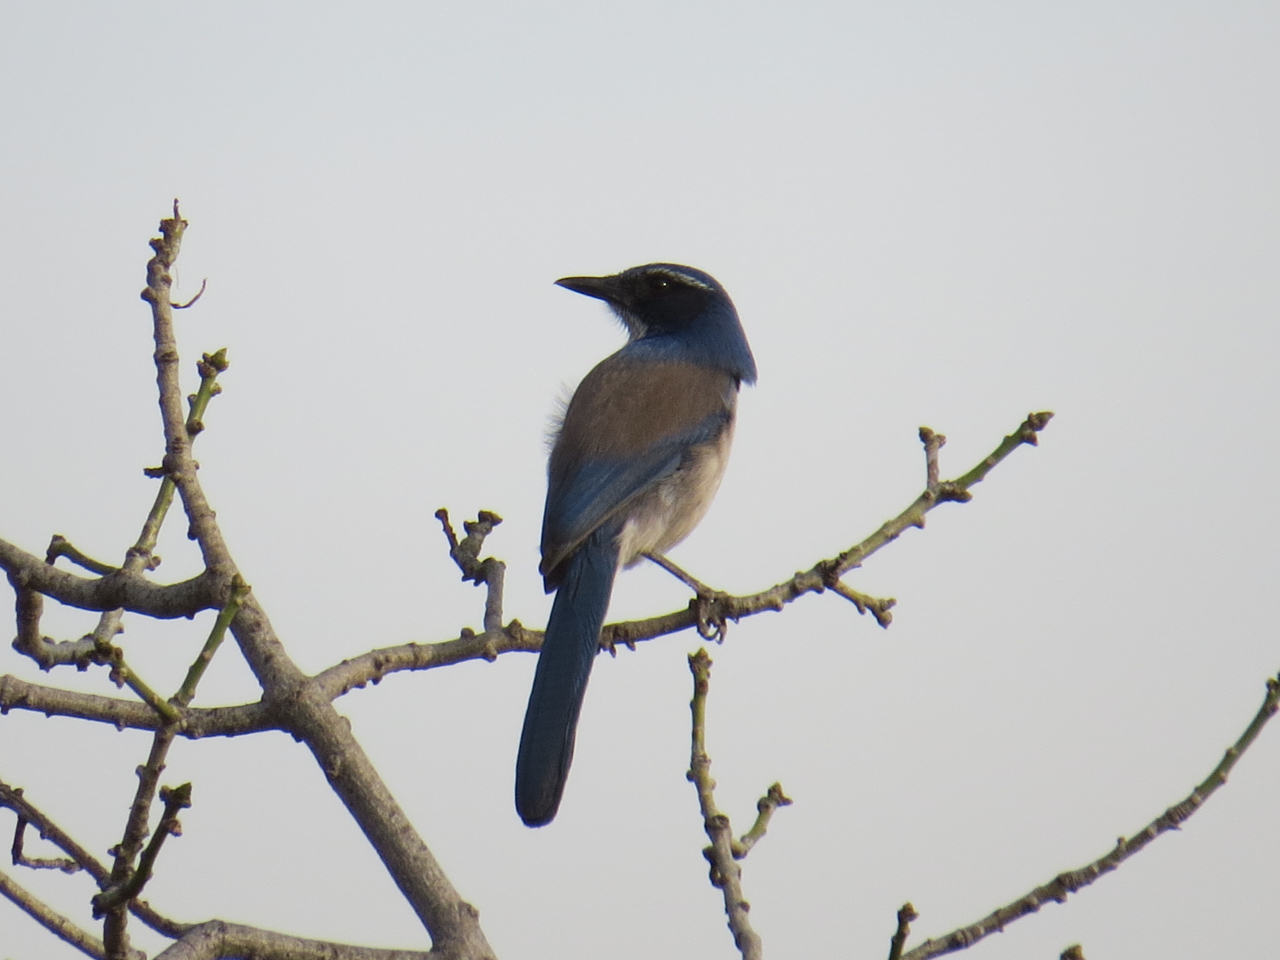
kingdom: Animalia
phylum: Chordata
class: Aves
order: Passeriformes
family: Corvidae
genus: Aphelocoma
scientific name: Aphelocoma californica
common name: California scrub-jay
